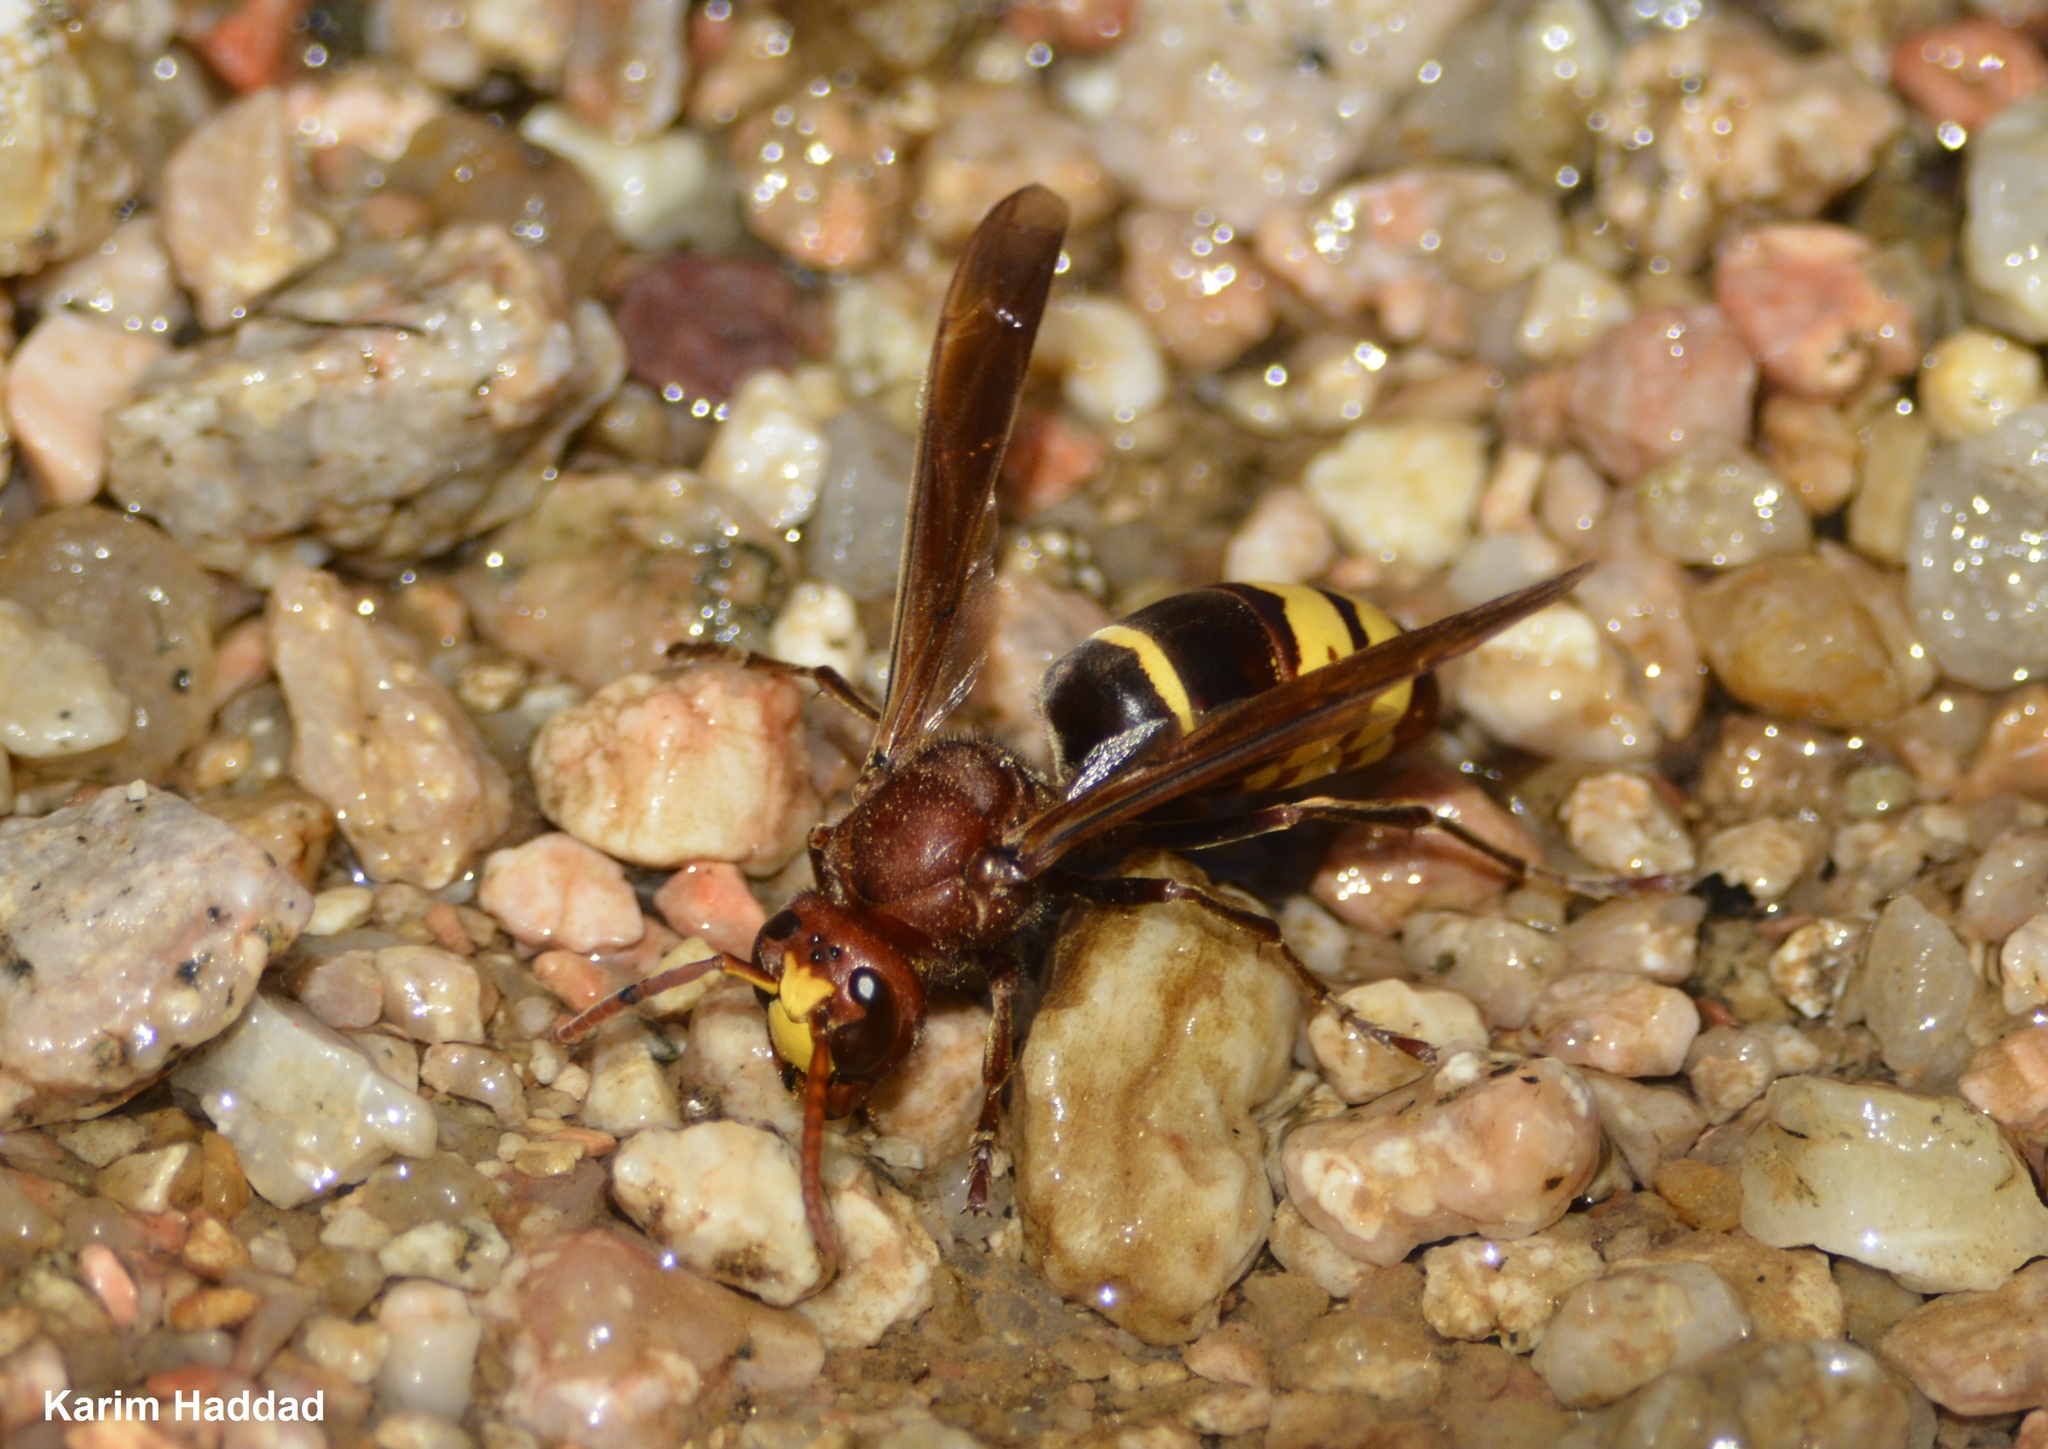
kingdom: Animalia
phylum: Arthropoda
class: Insecta
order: Hymenoptera
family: Vespidae
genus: Vespa
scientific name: Vespa orientalis
